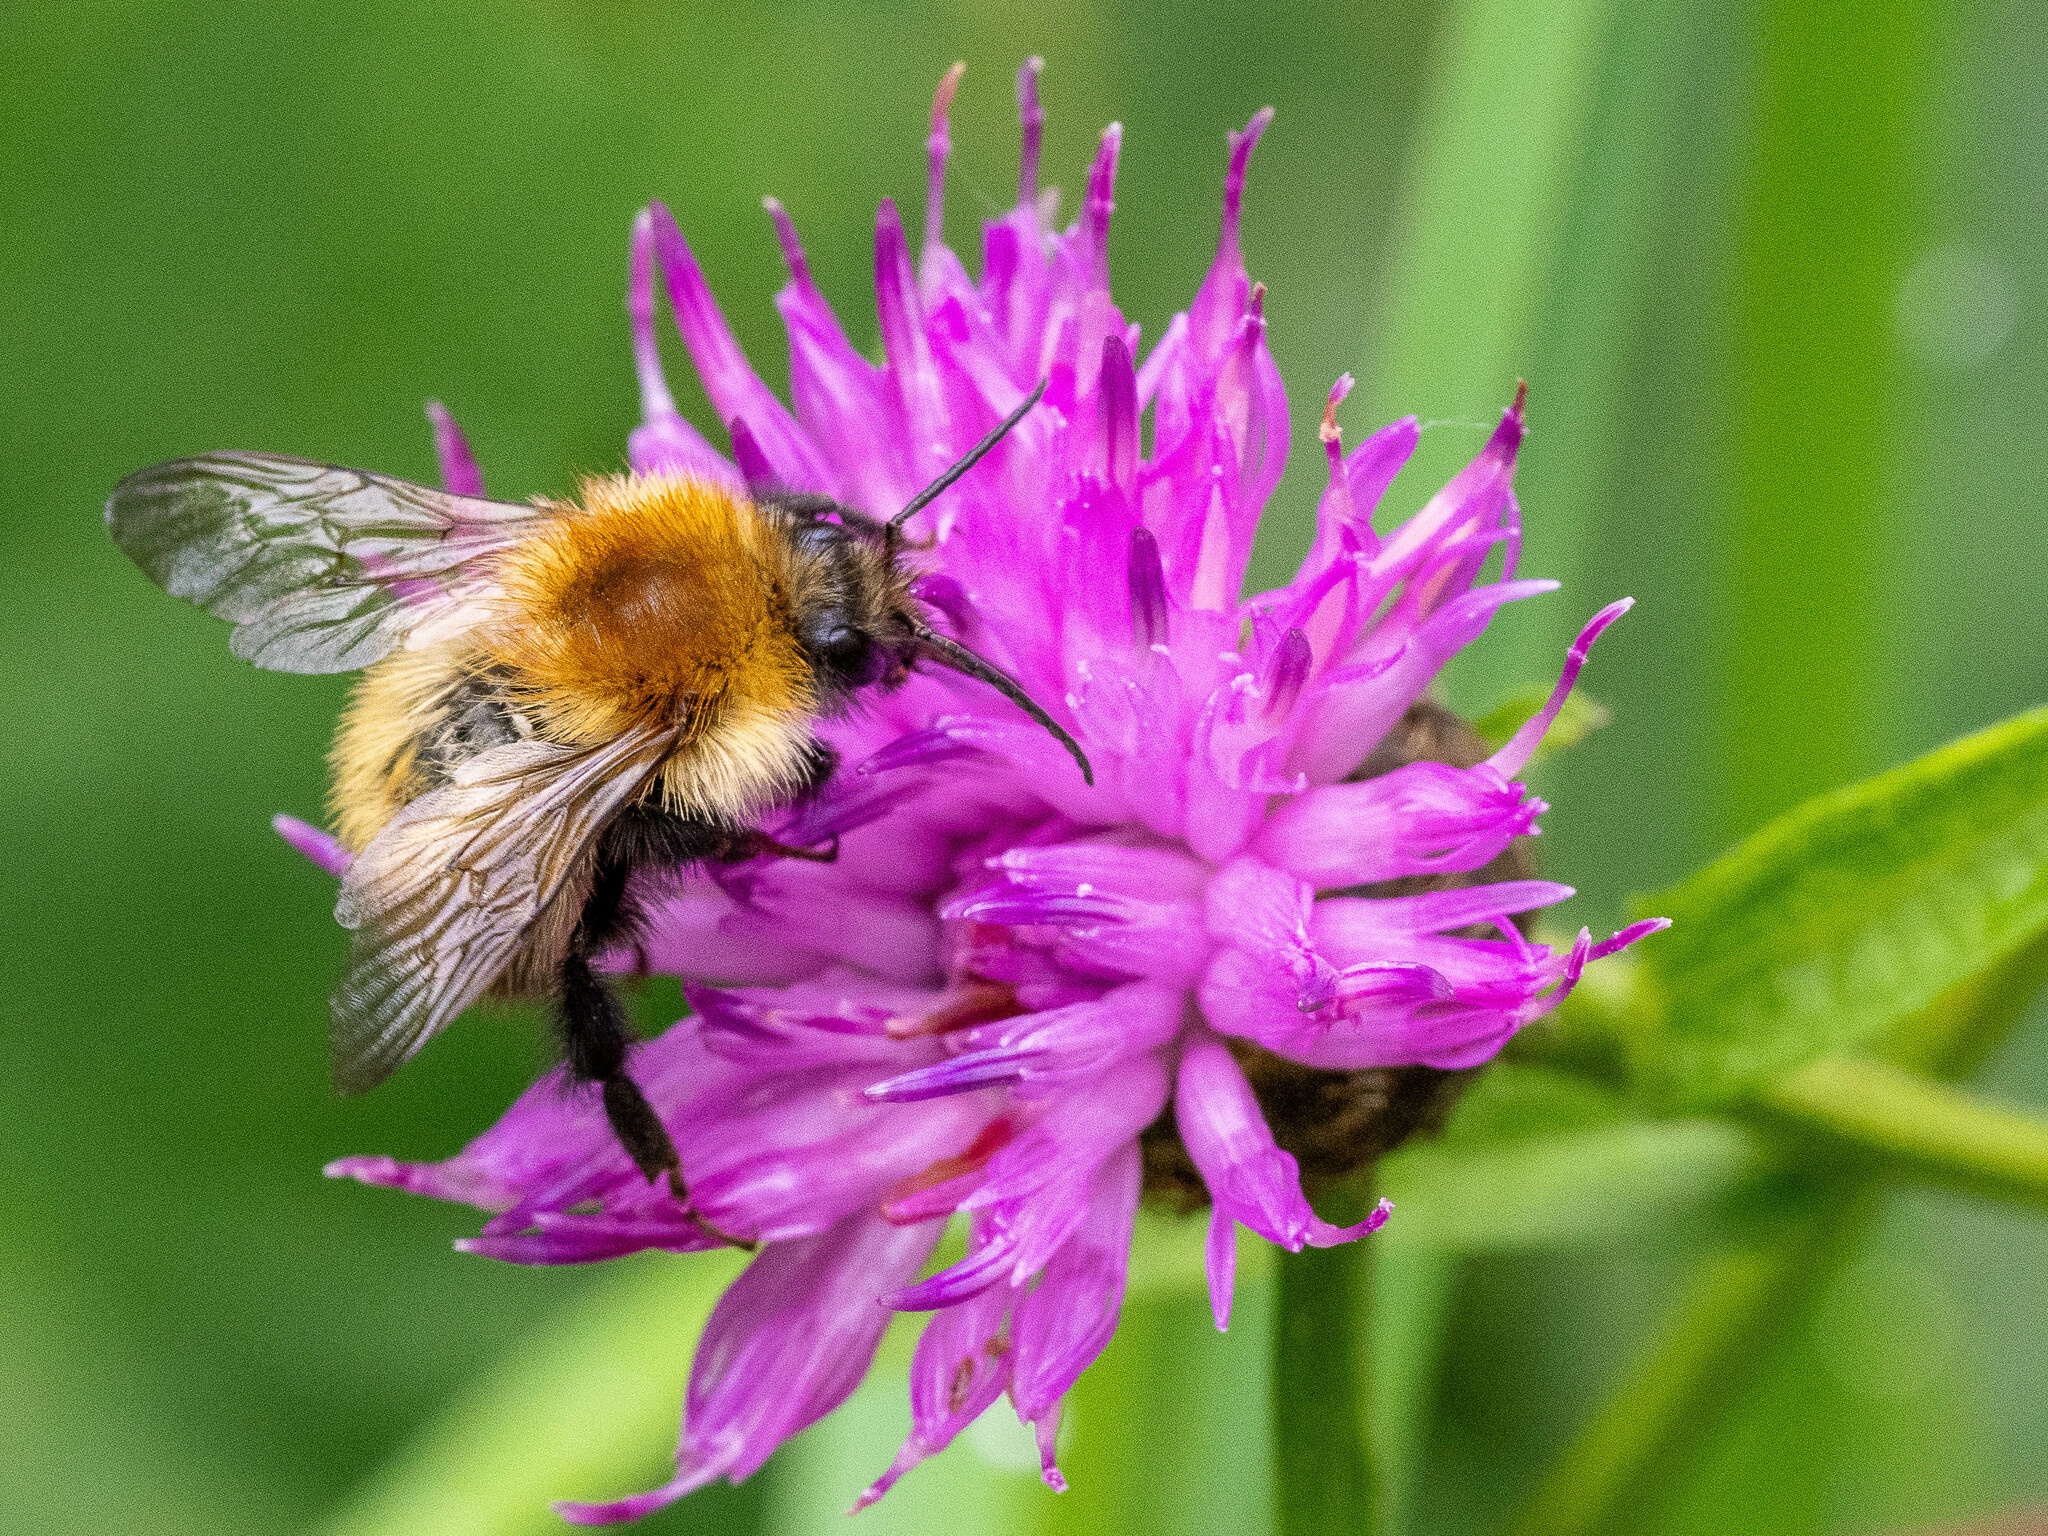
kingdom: Animalia
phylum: Arthropoda
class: Insecta
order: Hymenoptera
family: Apidae
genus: Bombus
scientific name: Bombus pascuorum
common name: Common carder bee
